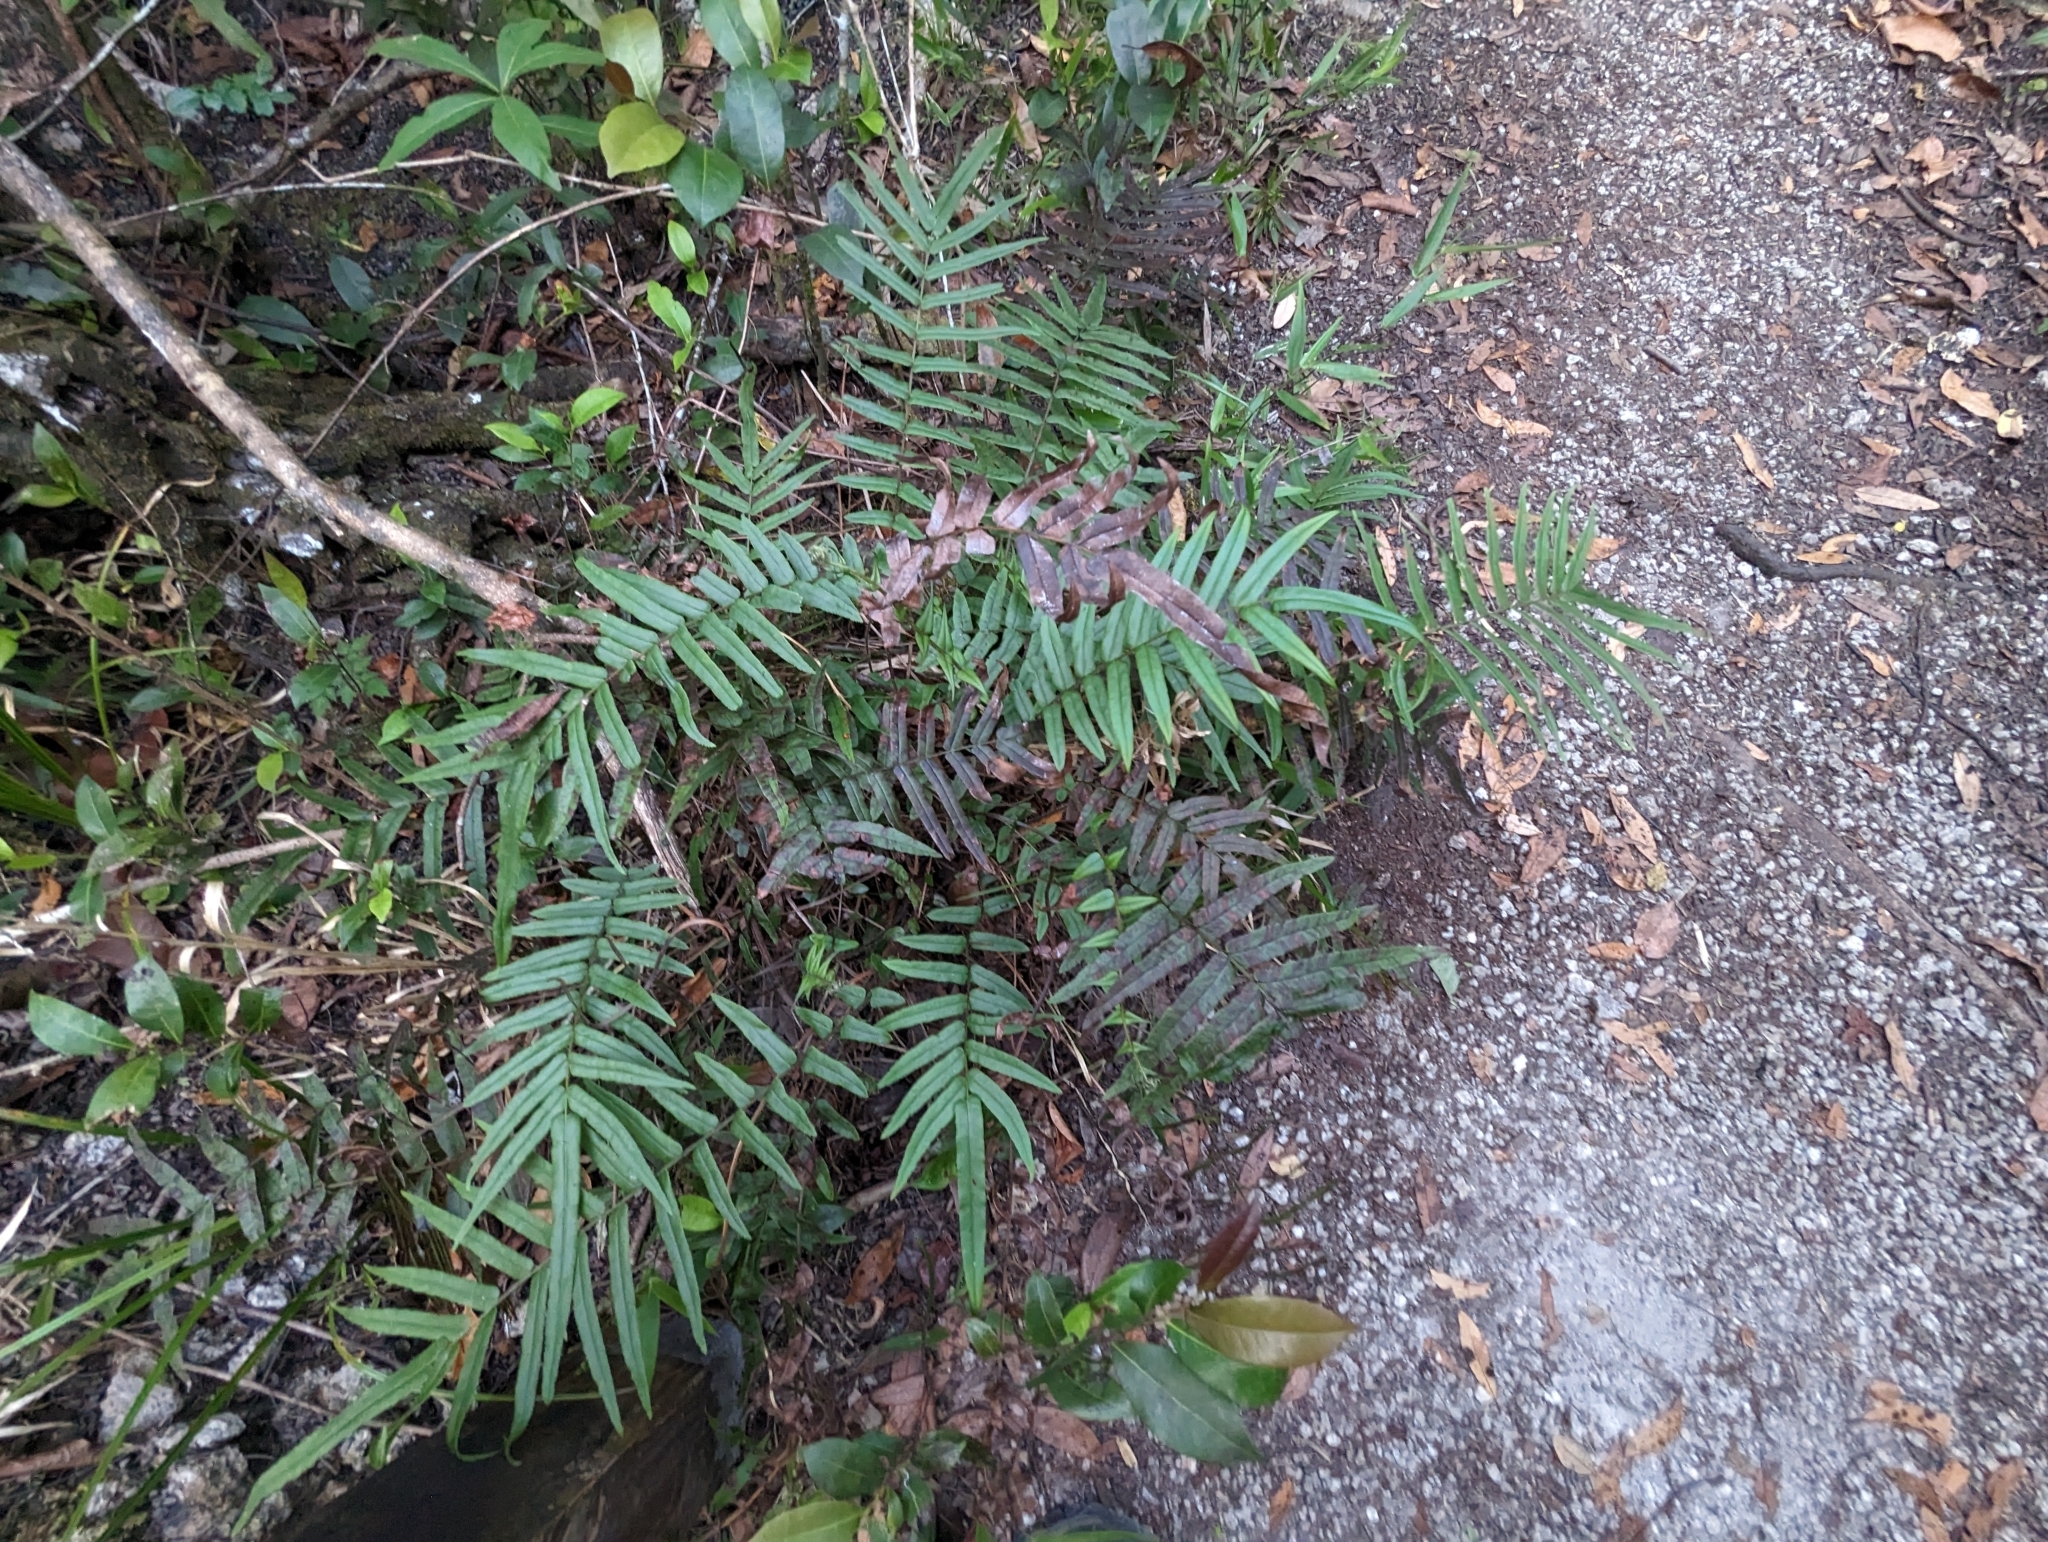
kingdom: Plantae
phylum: Tracheophyta
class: Polypodiopsida
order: Polypodiales
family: Pteridaceae
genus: Pteris
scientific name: Pteris vittata
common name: Ladder brake
